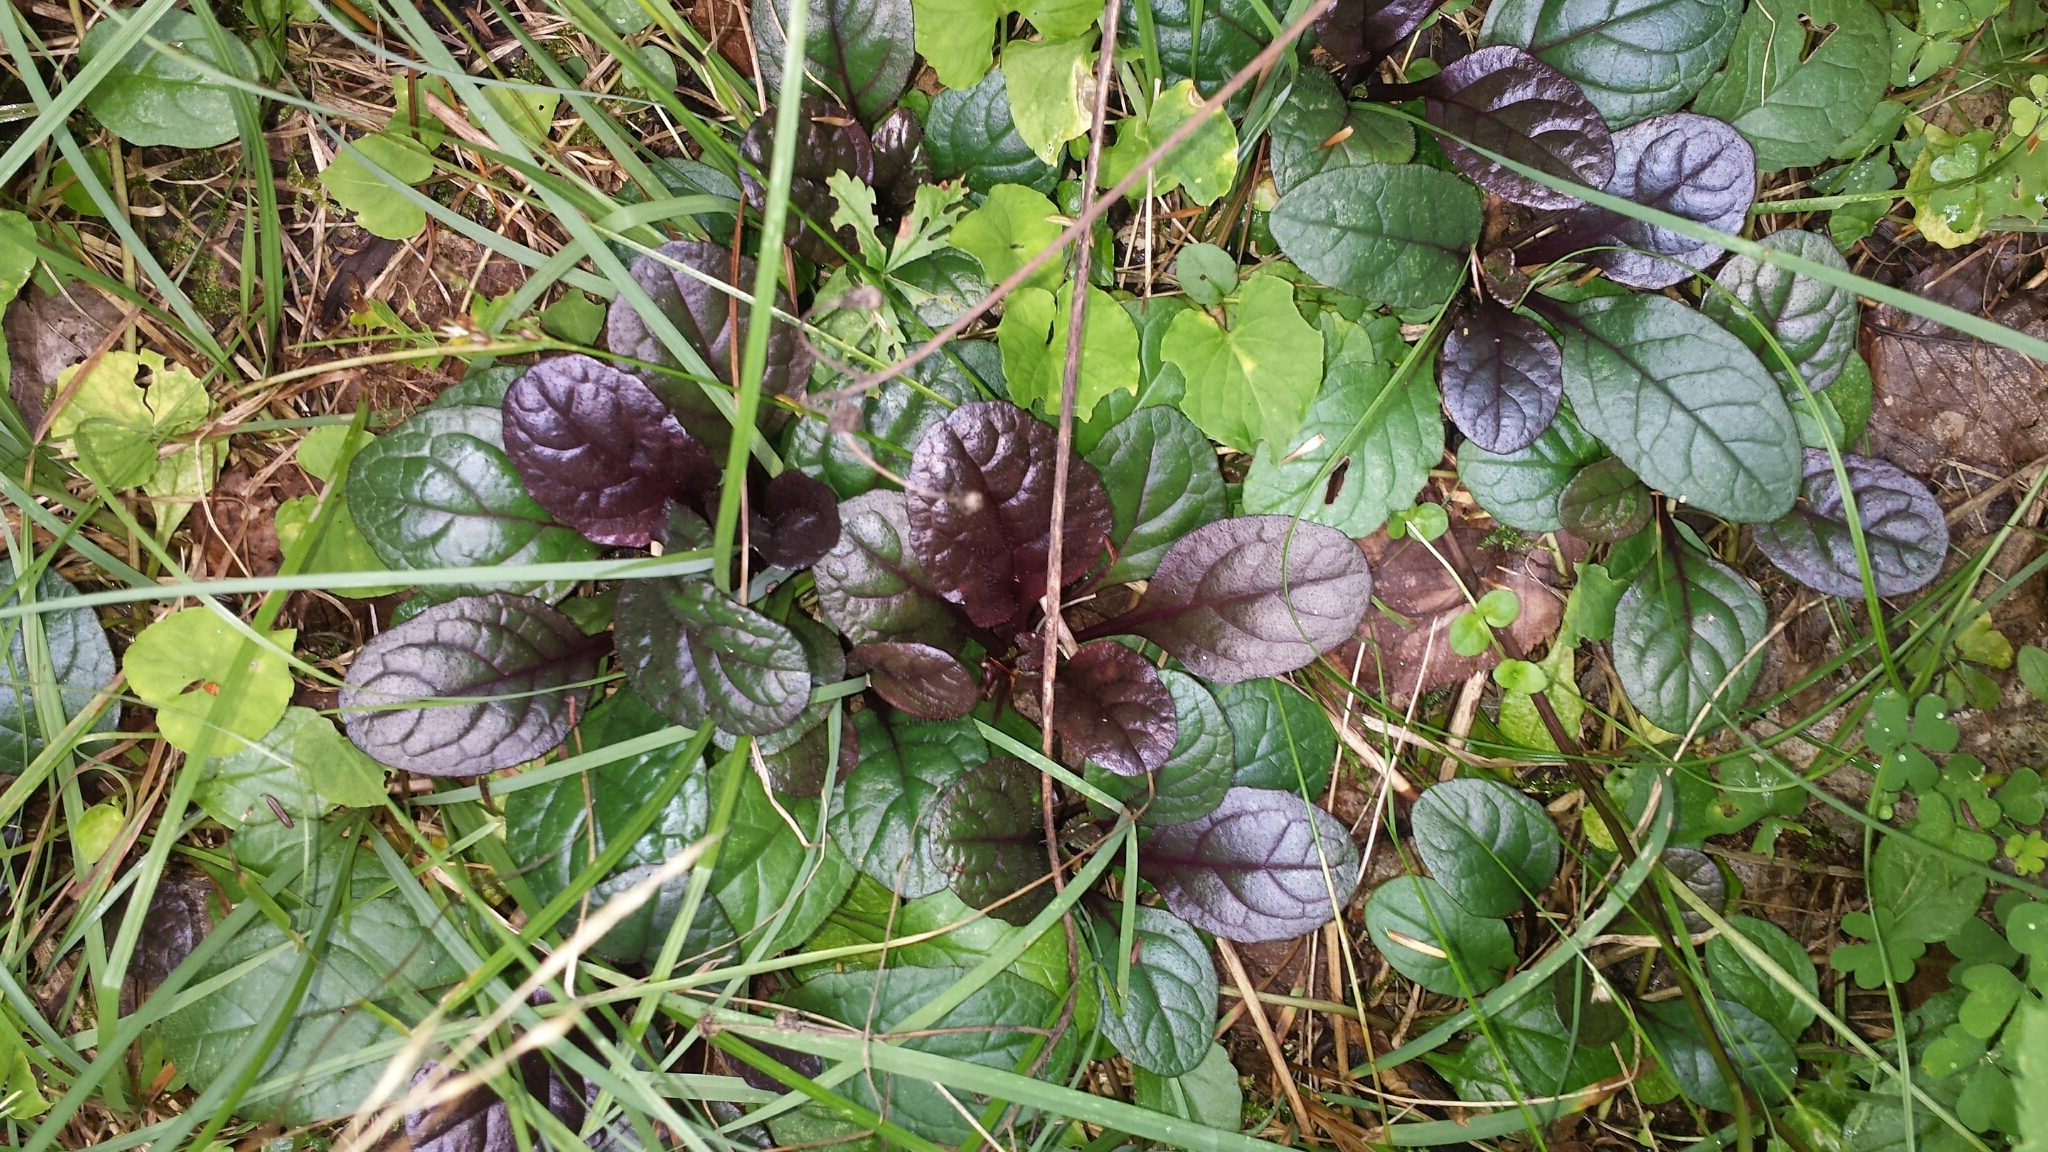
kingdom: Plantae
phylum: Tracheophyta
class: Magnoliopsida
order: Lamiales
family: Lamiaceae
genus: Ajuga
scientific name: Ajuga reptans
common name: Bugle
